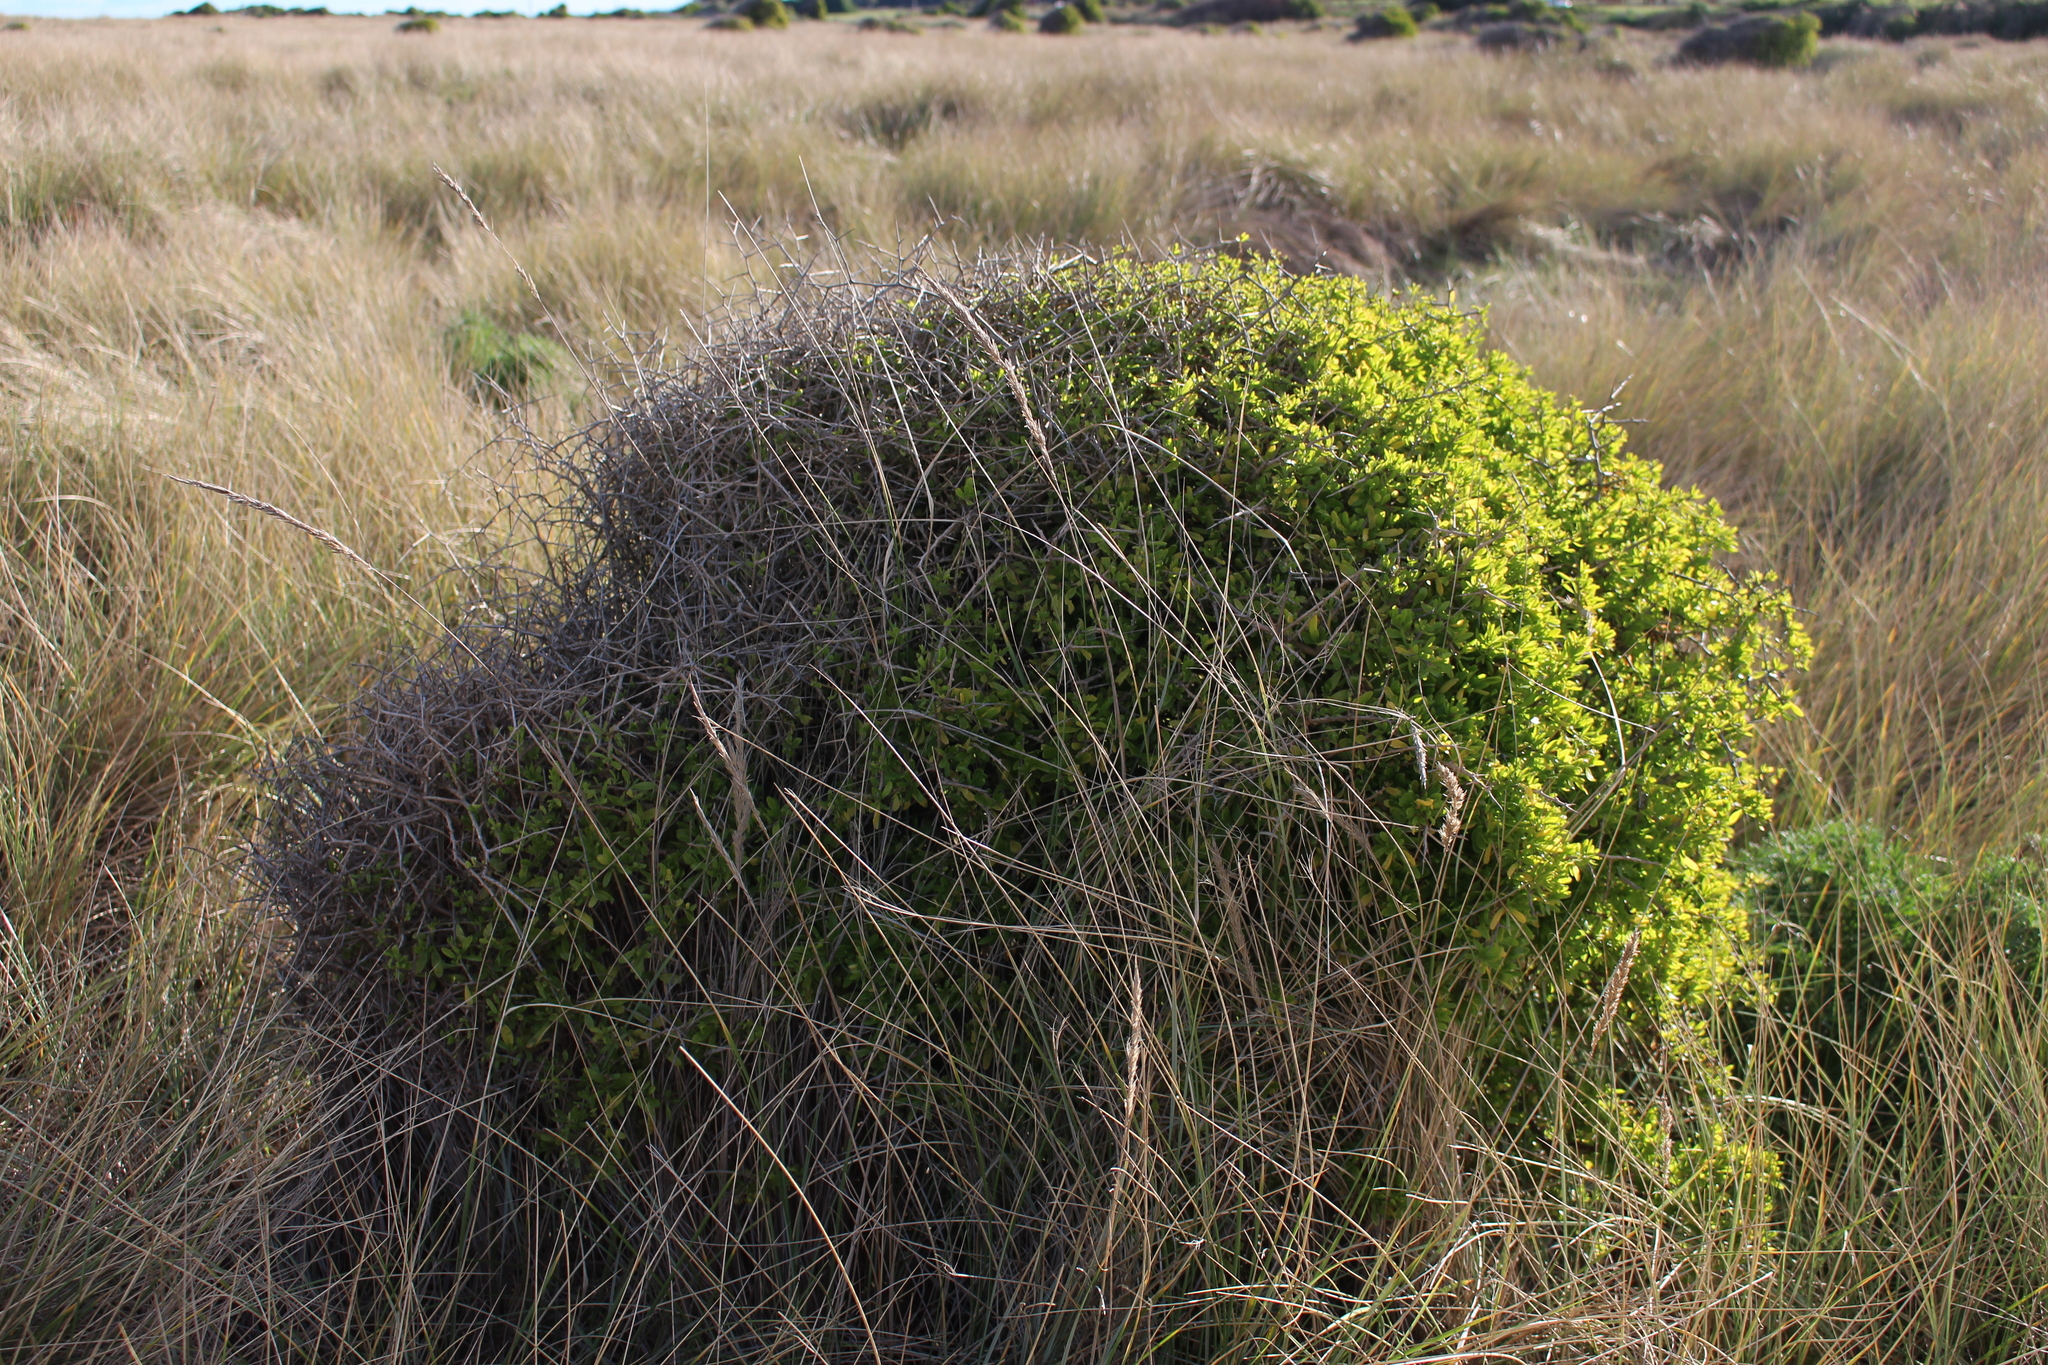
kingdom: Plantae
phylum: Tracheophyta
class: Magnoliopsida
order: Solanales
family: Solanaceae
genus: Lycium
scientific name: Lycium ferocissimum
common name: African boxthorn
